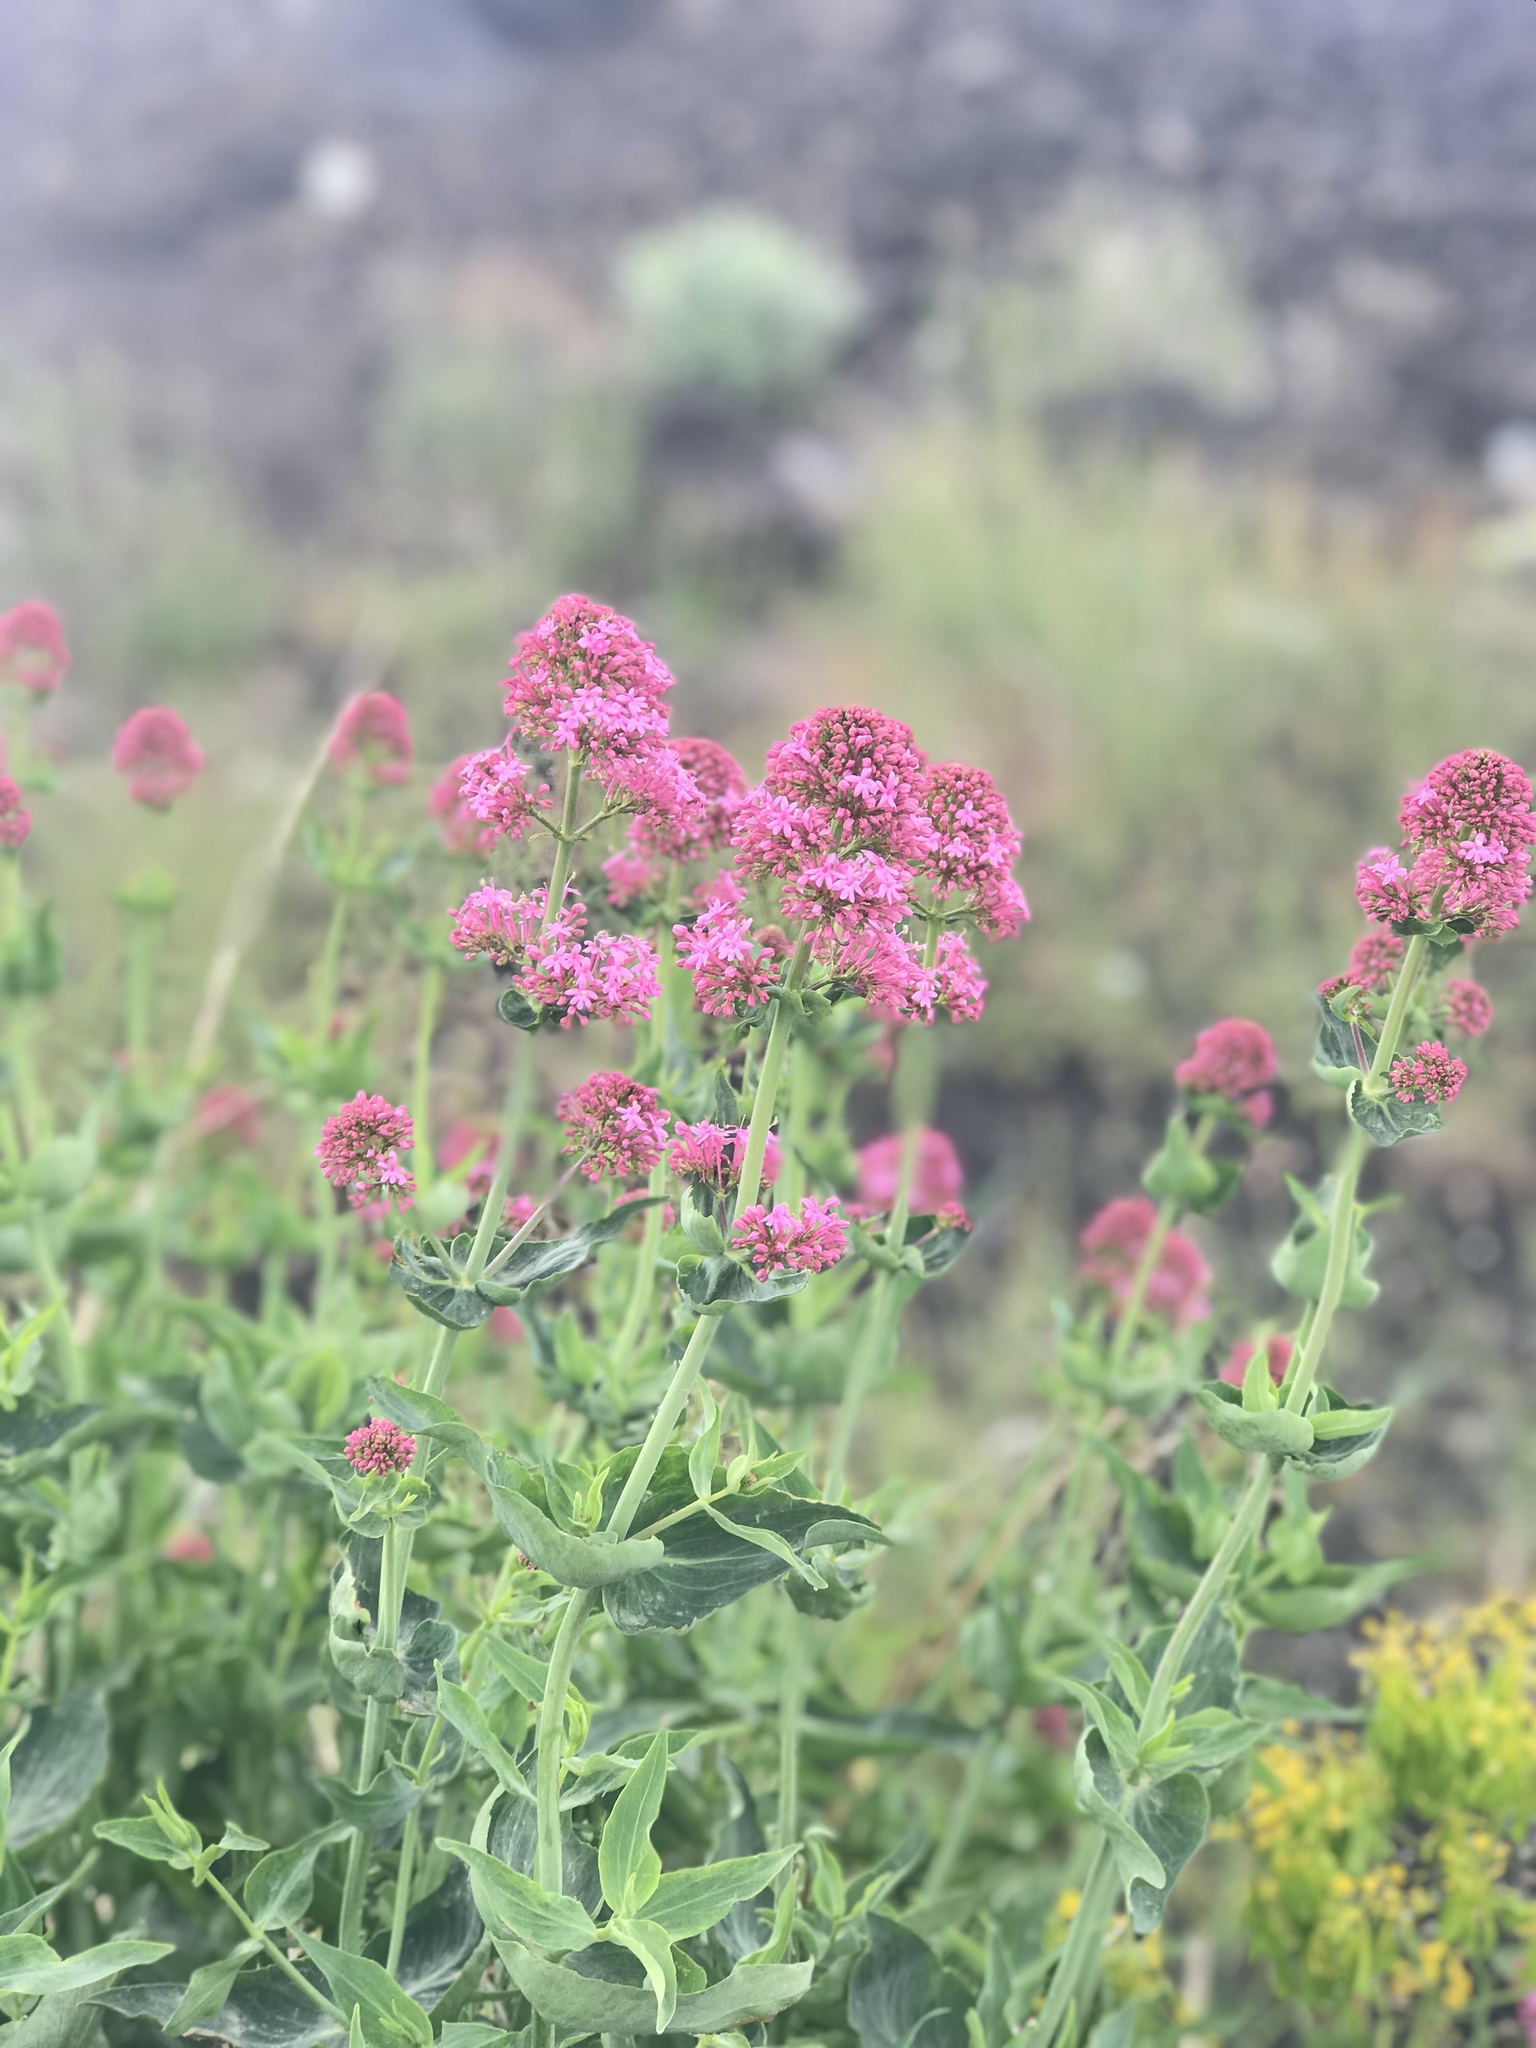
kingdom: Plantae
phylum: Tracheophyta
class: Magnoliopsida
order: Dipsacales
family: Caprifoliaceae
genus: Centranthus
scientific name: Centranthus ruber
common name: Red valerian
